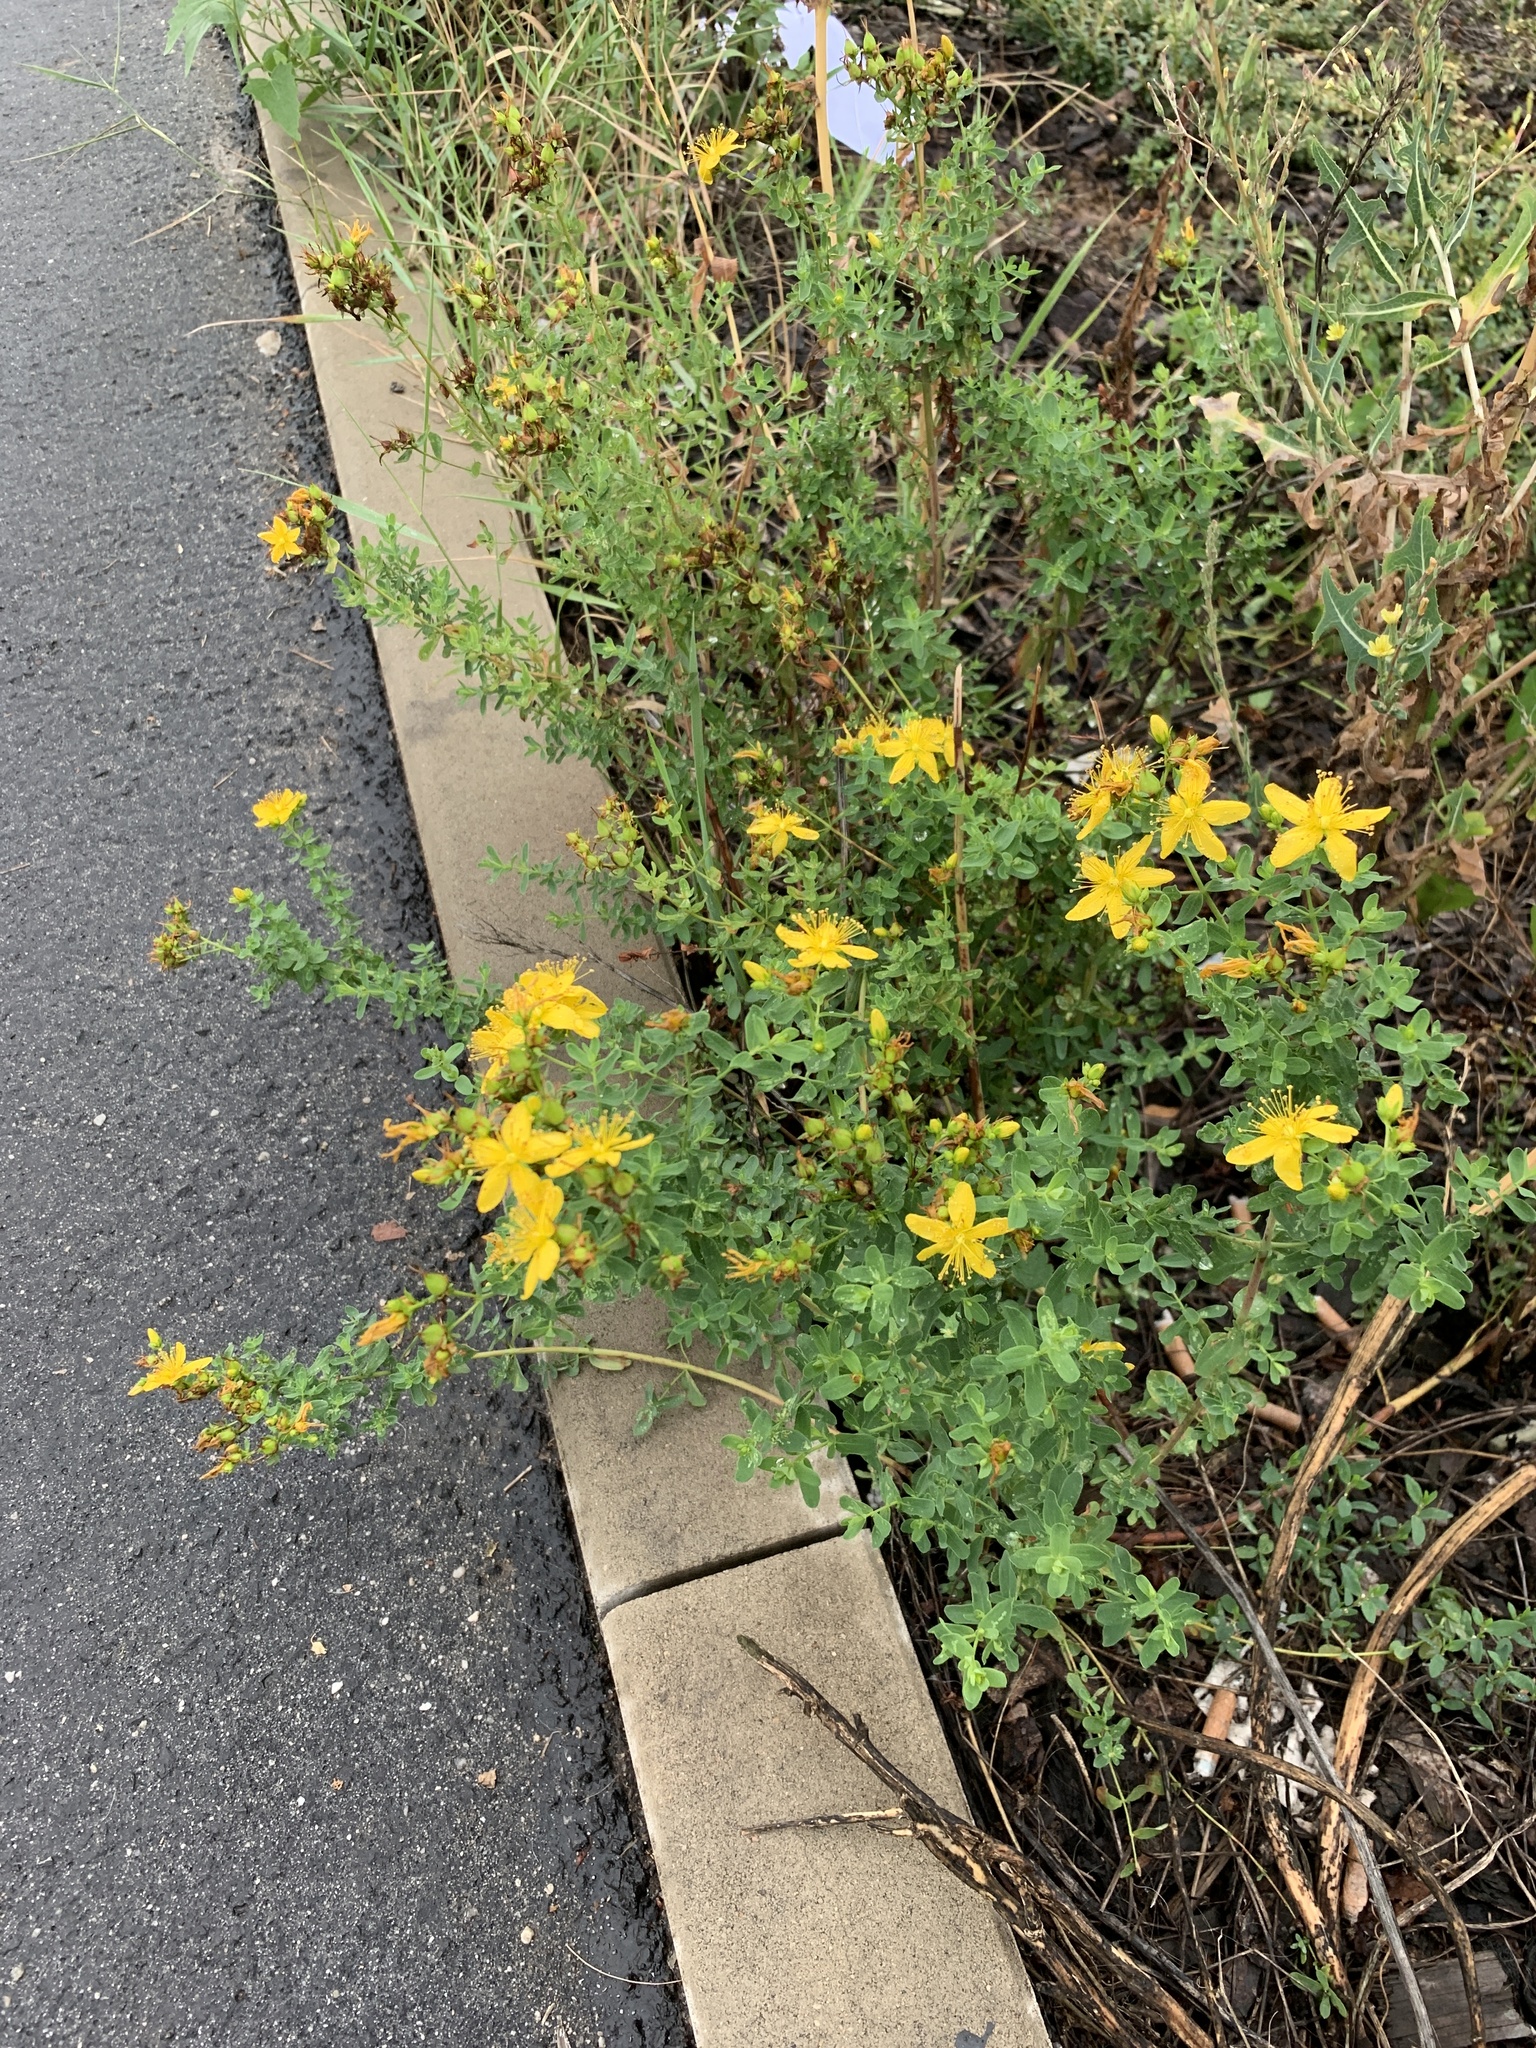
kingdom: Plantae
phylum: Tracheophyta
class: Magnoliopsida
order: Malpighiales
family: Hypericaceae
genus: Hypericum
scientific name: Hypericum perforatum
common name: Common st. johnswort
